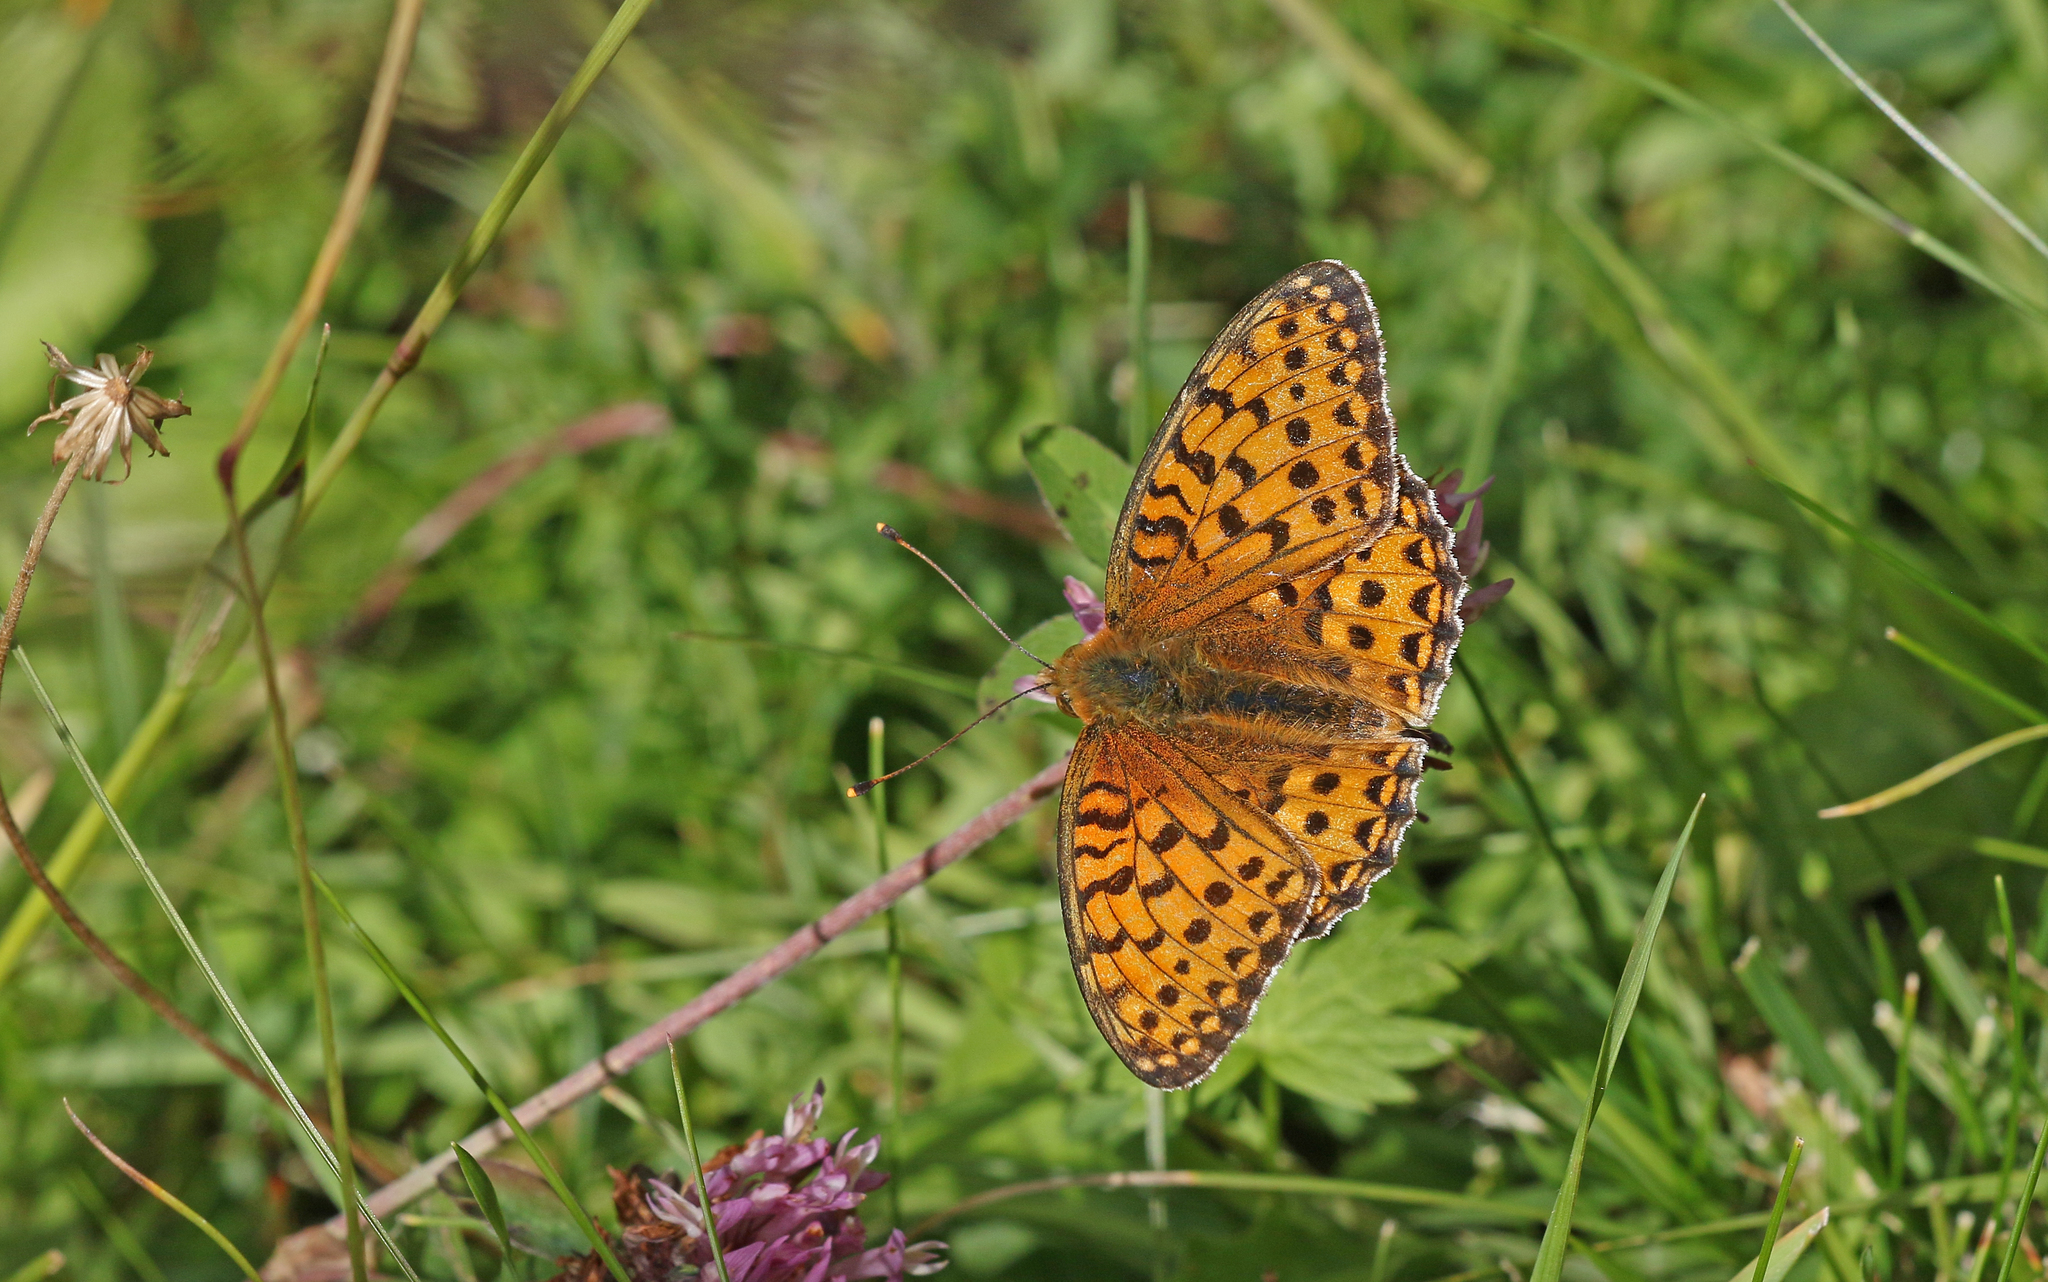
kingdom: Animalia
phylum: Arthropoda
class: Insecta
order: Lepidoptera
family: Nymphalidae
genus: Speyeria
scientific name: Speyeria aglaja
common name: Dark green fritillary
